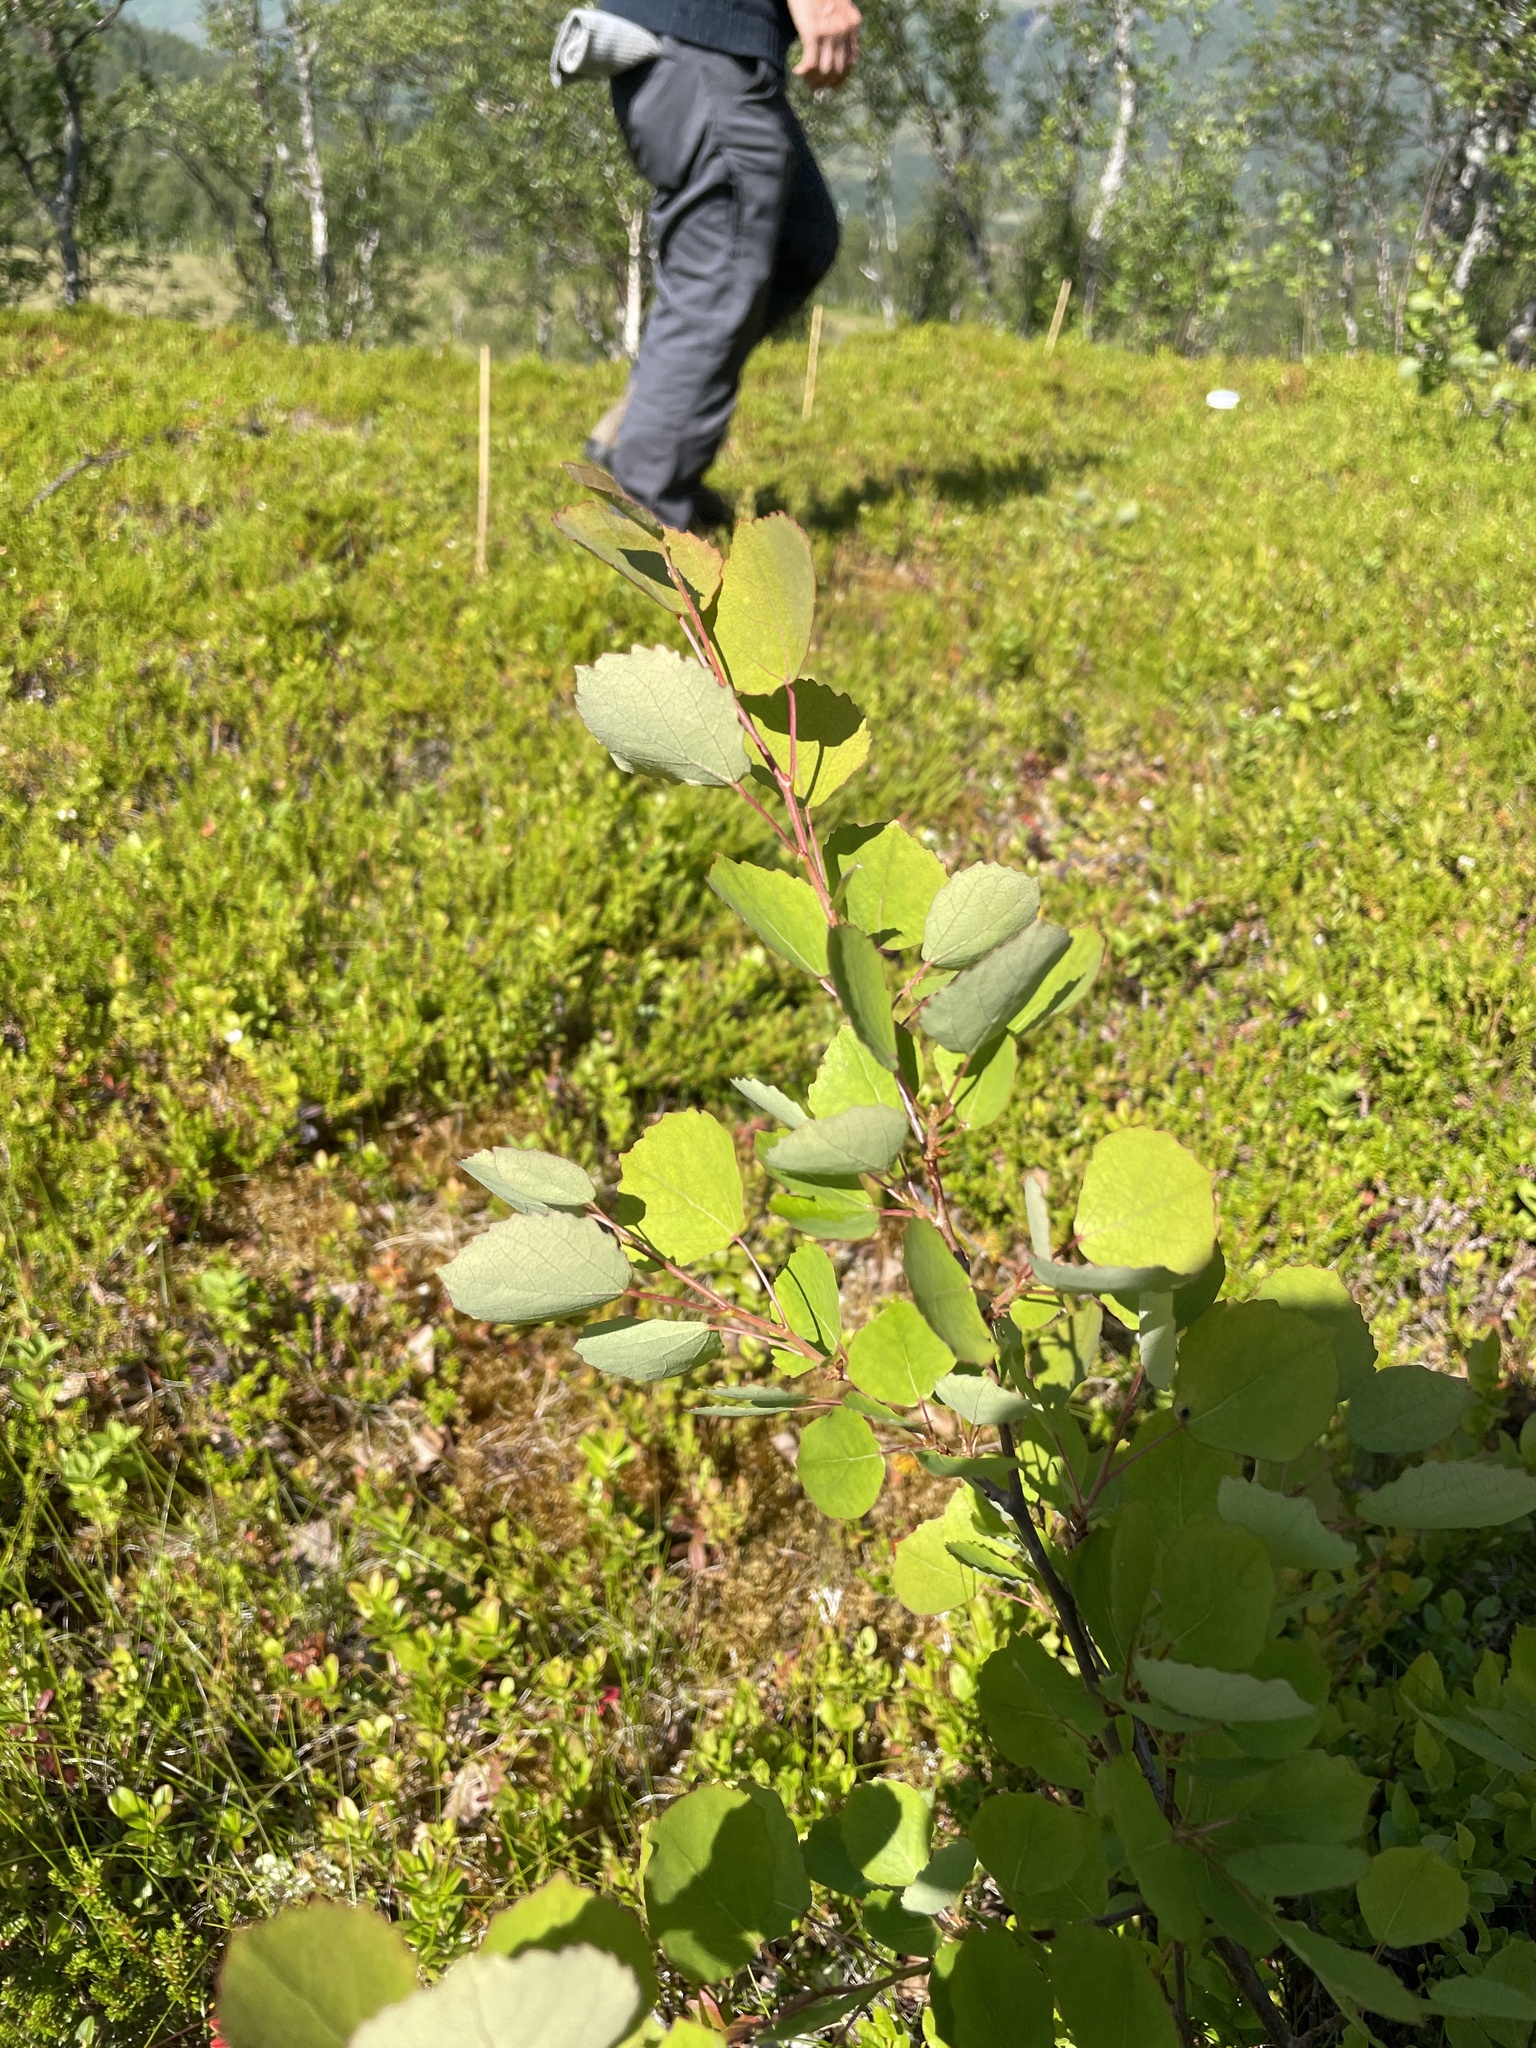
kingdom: Plantae
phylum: Tracheophyta
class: Magnoliopsida
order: Malpighiales
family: Salicaceae
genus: Populus
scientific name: Populus tremula
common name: European aspen
